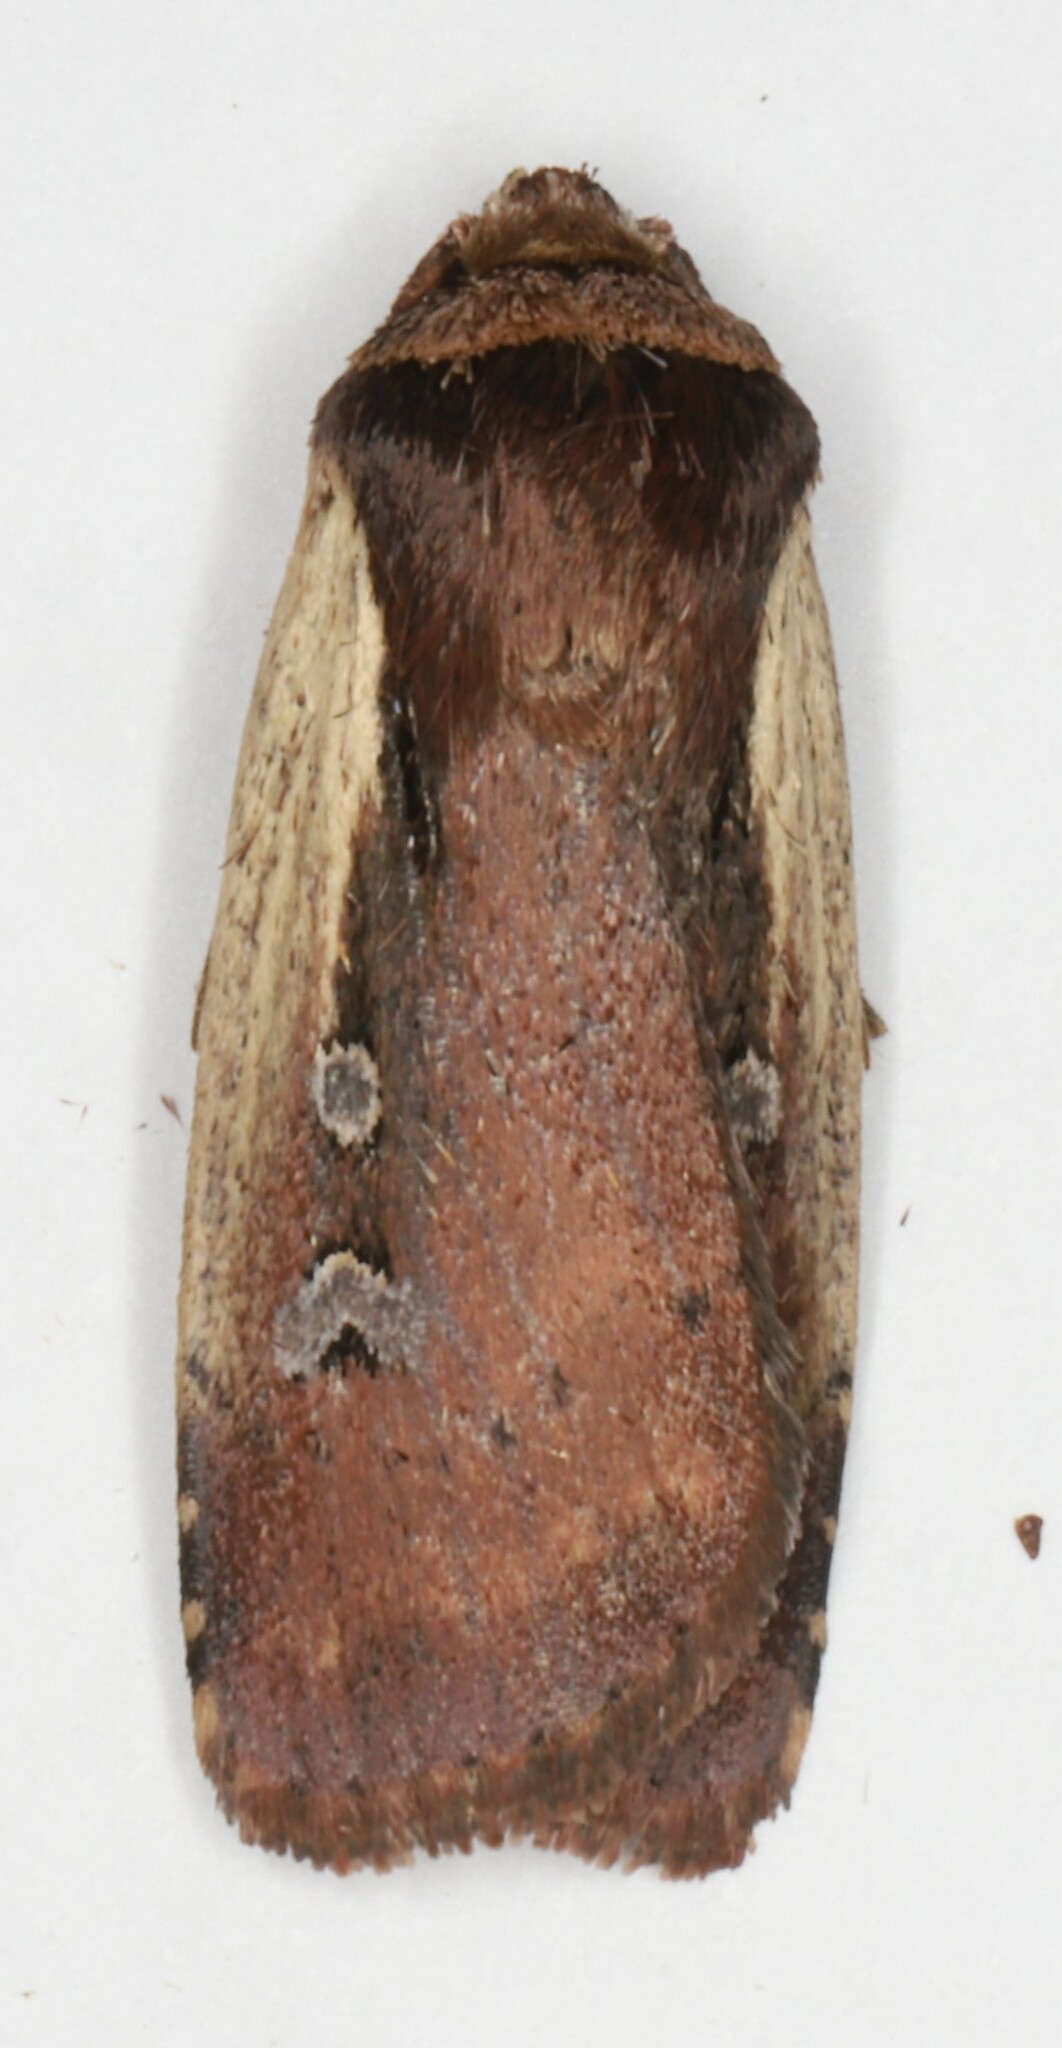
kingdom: Animalia
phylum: Arthropoda
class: Insecta
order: Lepidoptera
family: Noctuidae
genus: Ochropleura
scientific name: Ochropleura implecta
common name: Flame-shouldered dart
